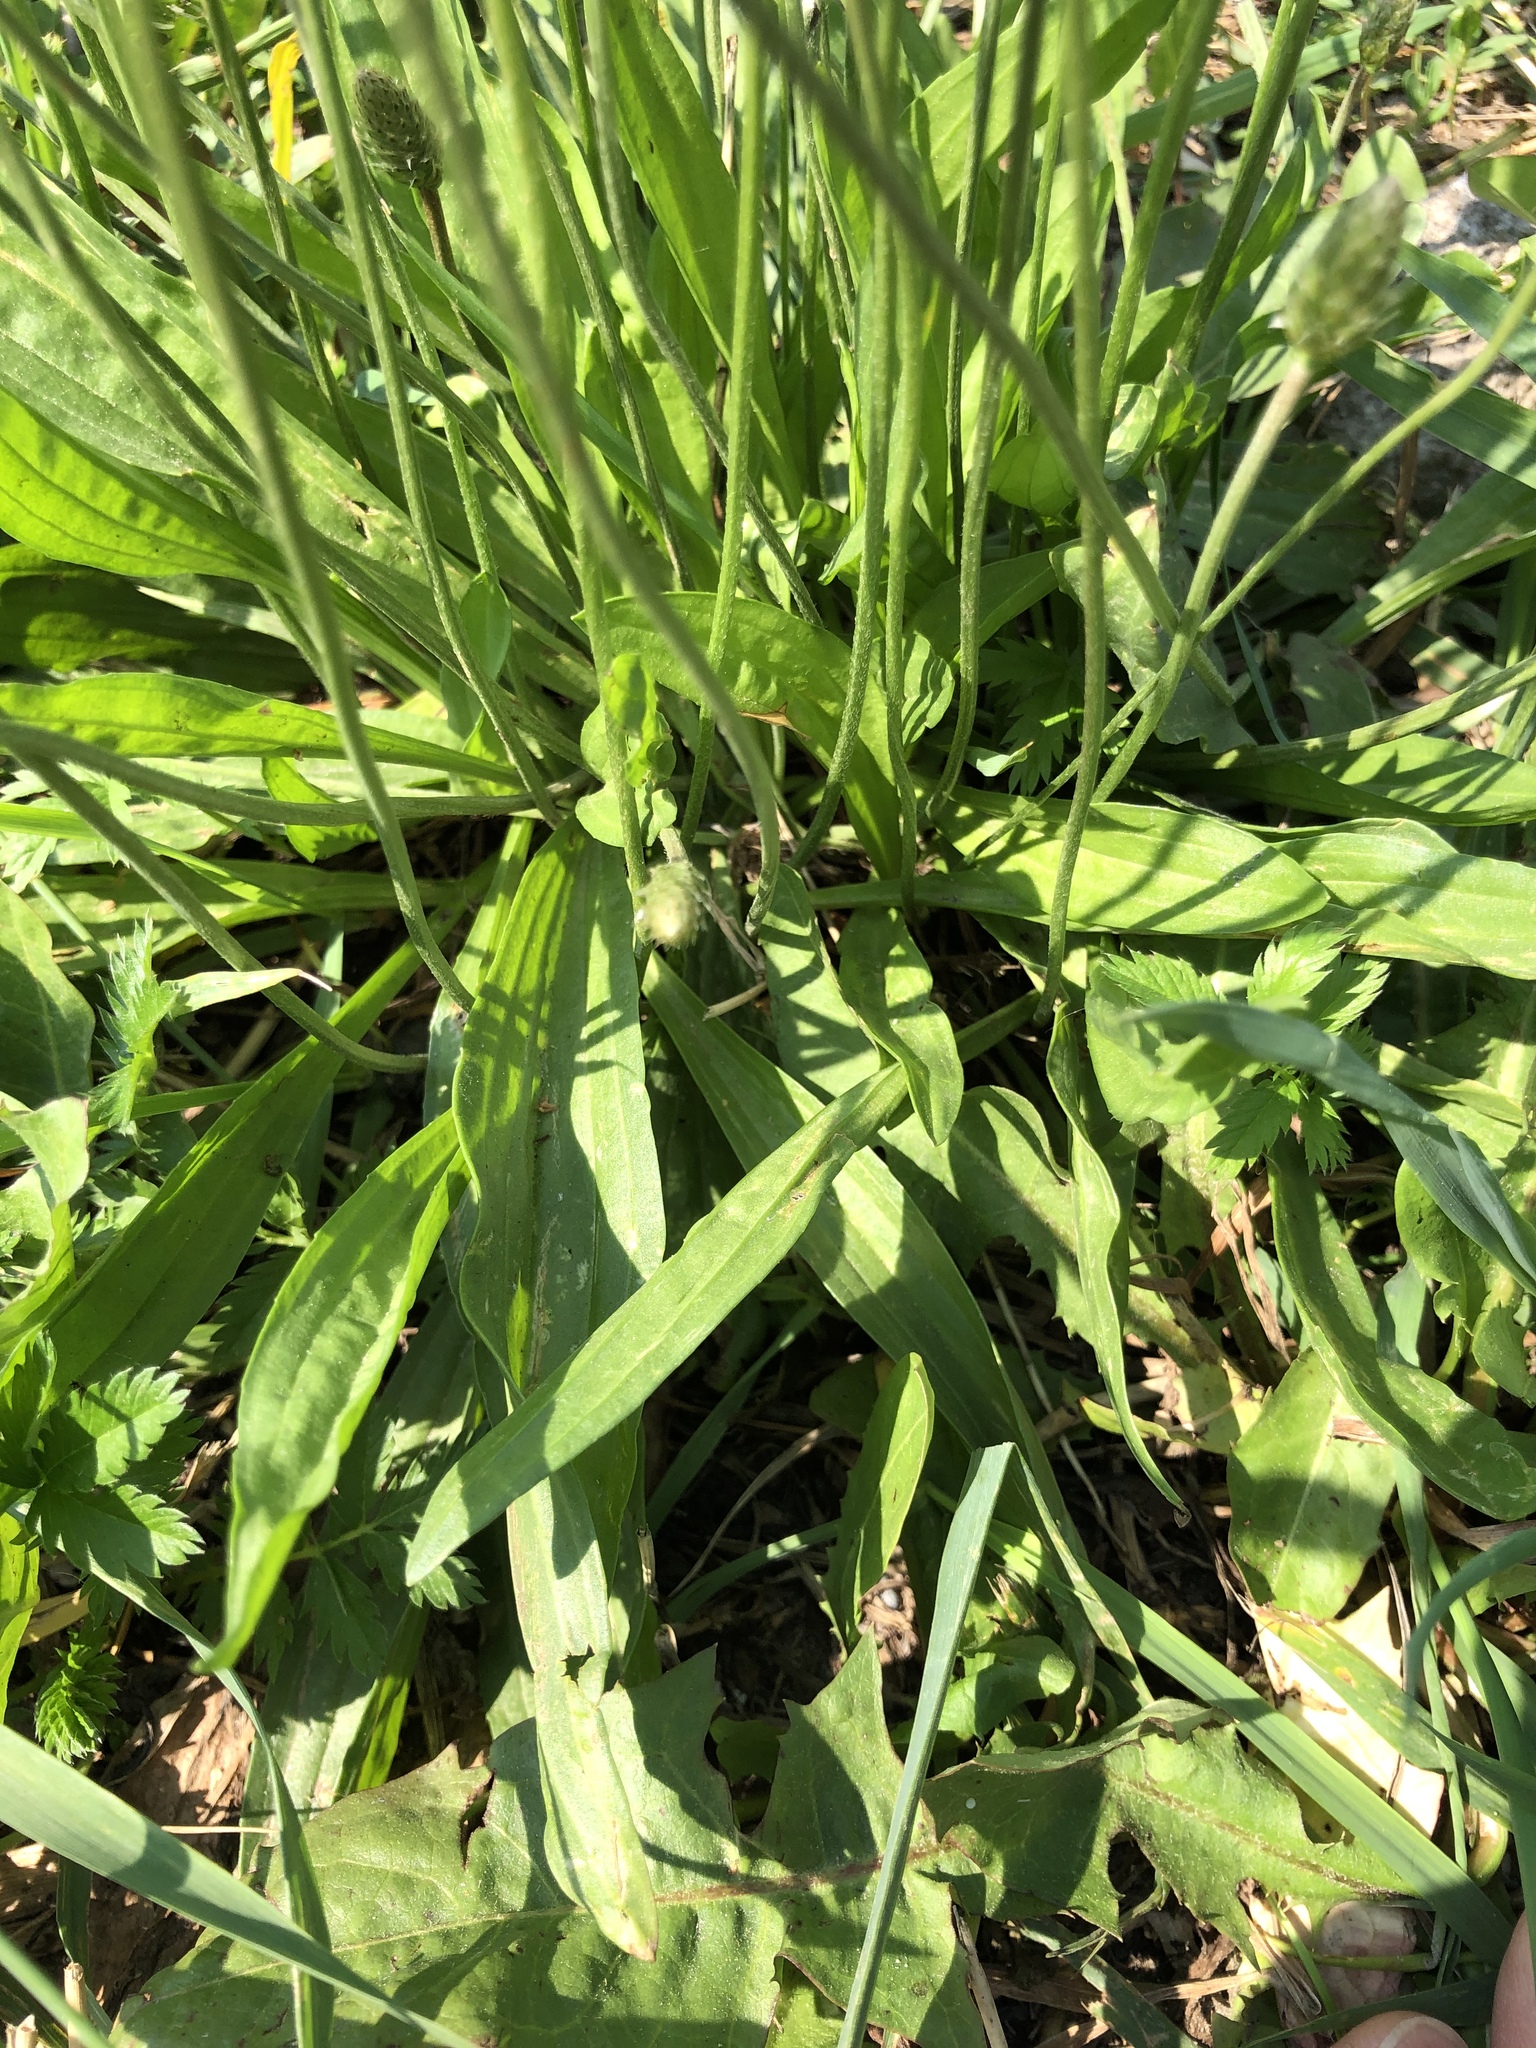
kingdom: Plantae
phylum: Tracheophyta
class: Magnoliopsida
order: Lamiales
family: Plantaginaceae
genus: Plantago
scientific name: Plantago lanceolata
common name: Ribwort plantain
